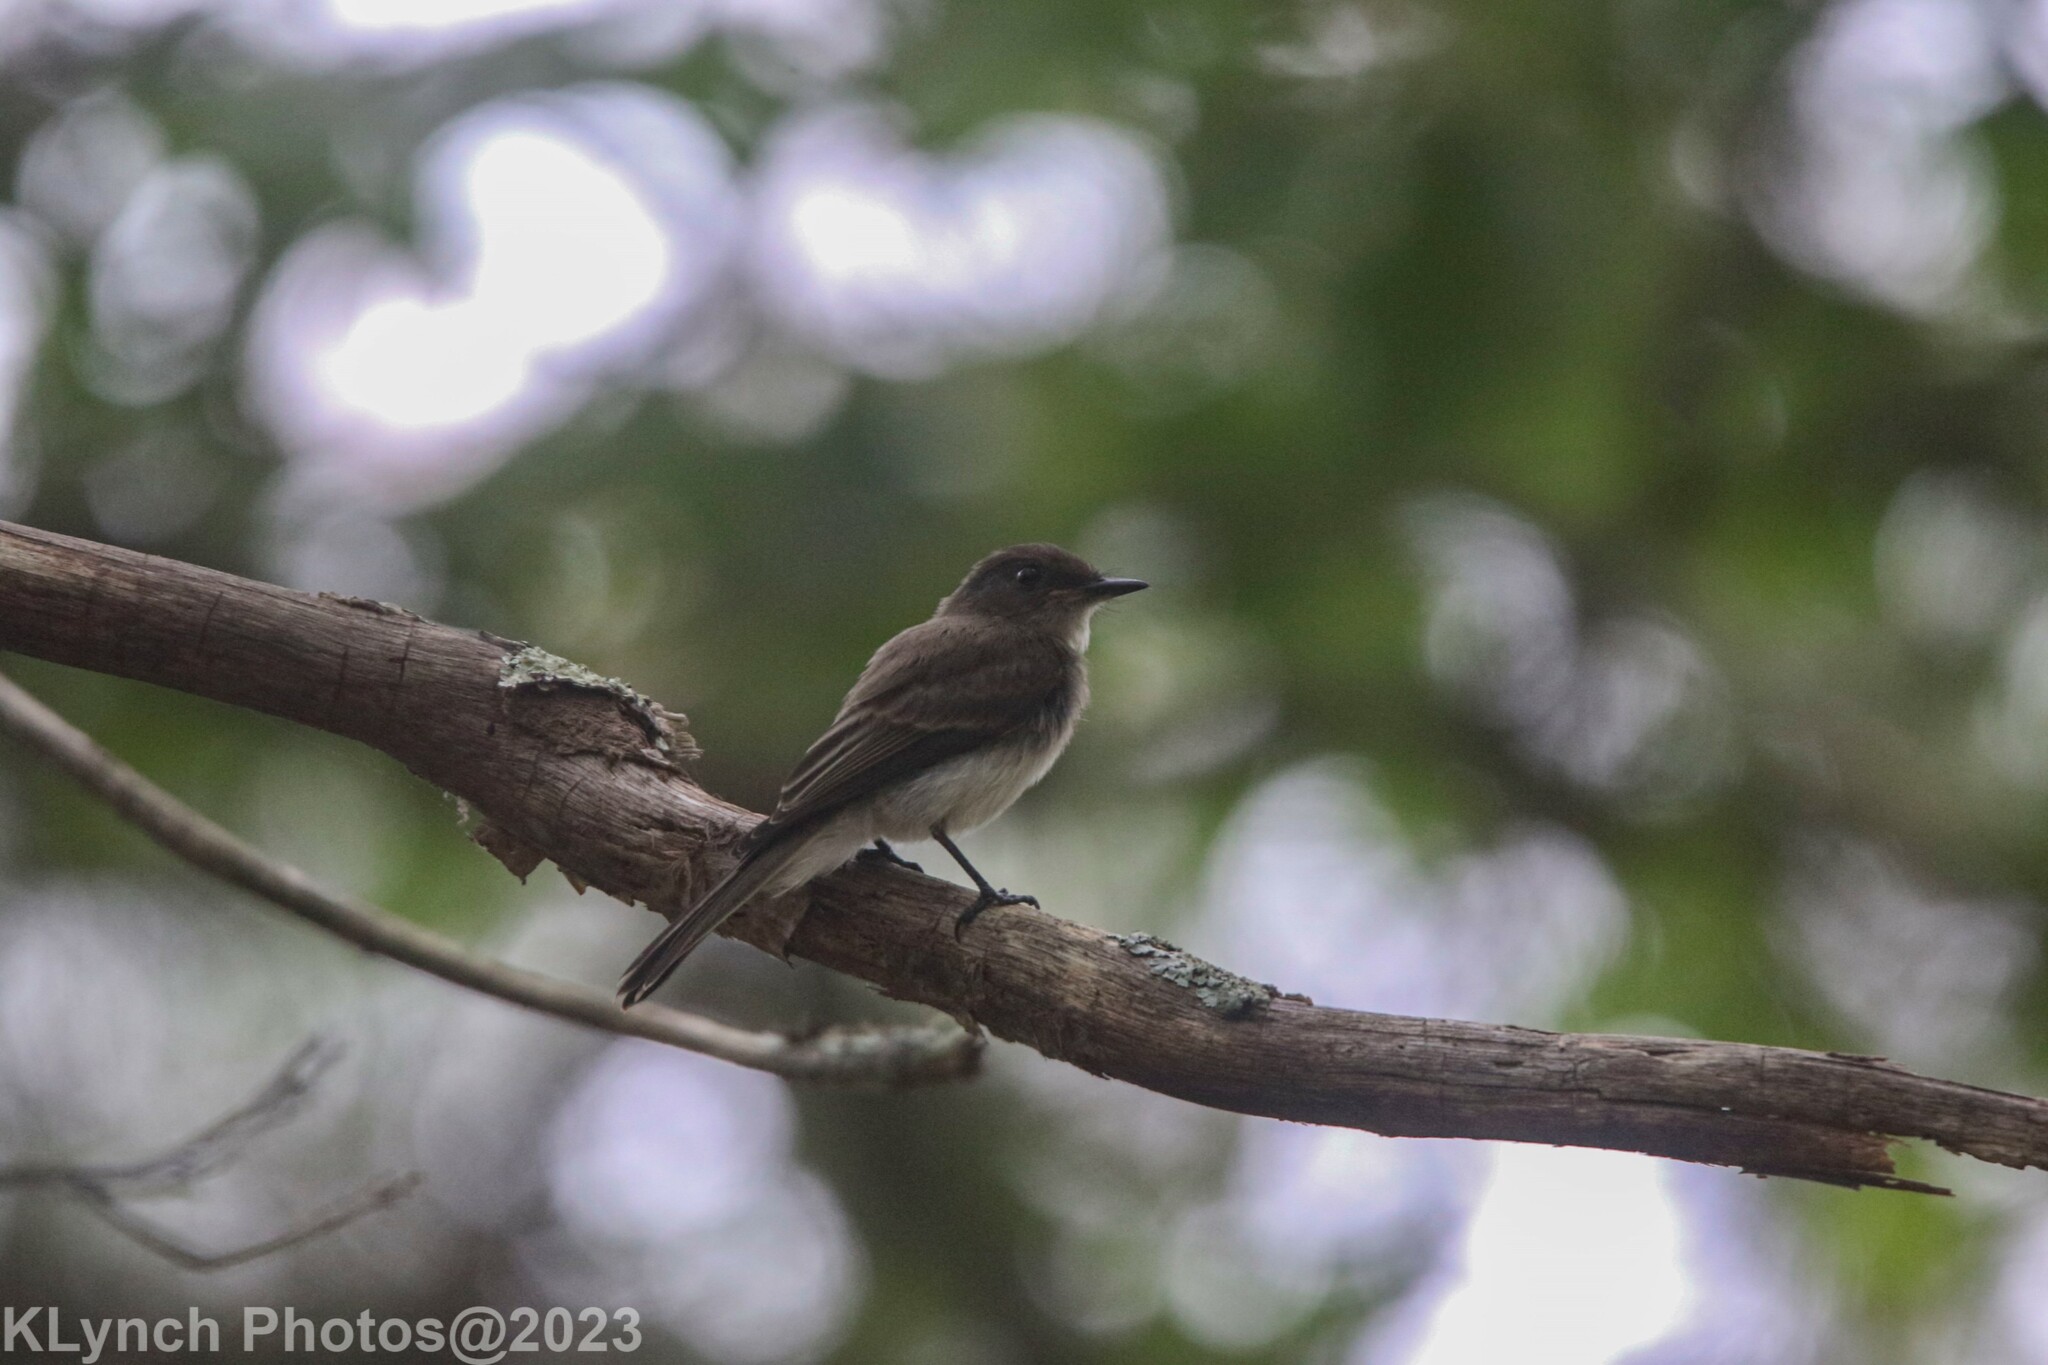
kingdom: Animalia
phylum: Chordata
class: Aves
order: Passeriformes
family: Tyrannidae
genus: Sayornis
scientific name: Sayornis phoebe
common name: Eastern phoebe
